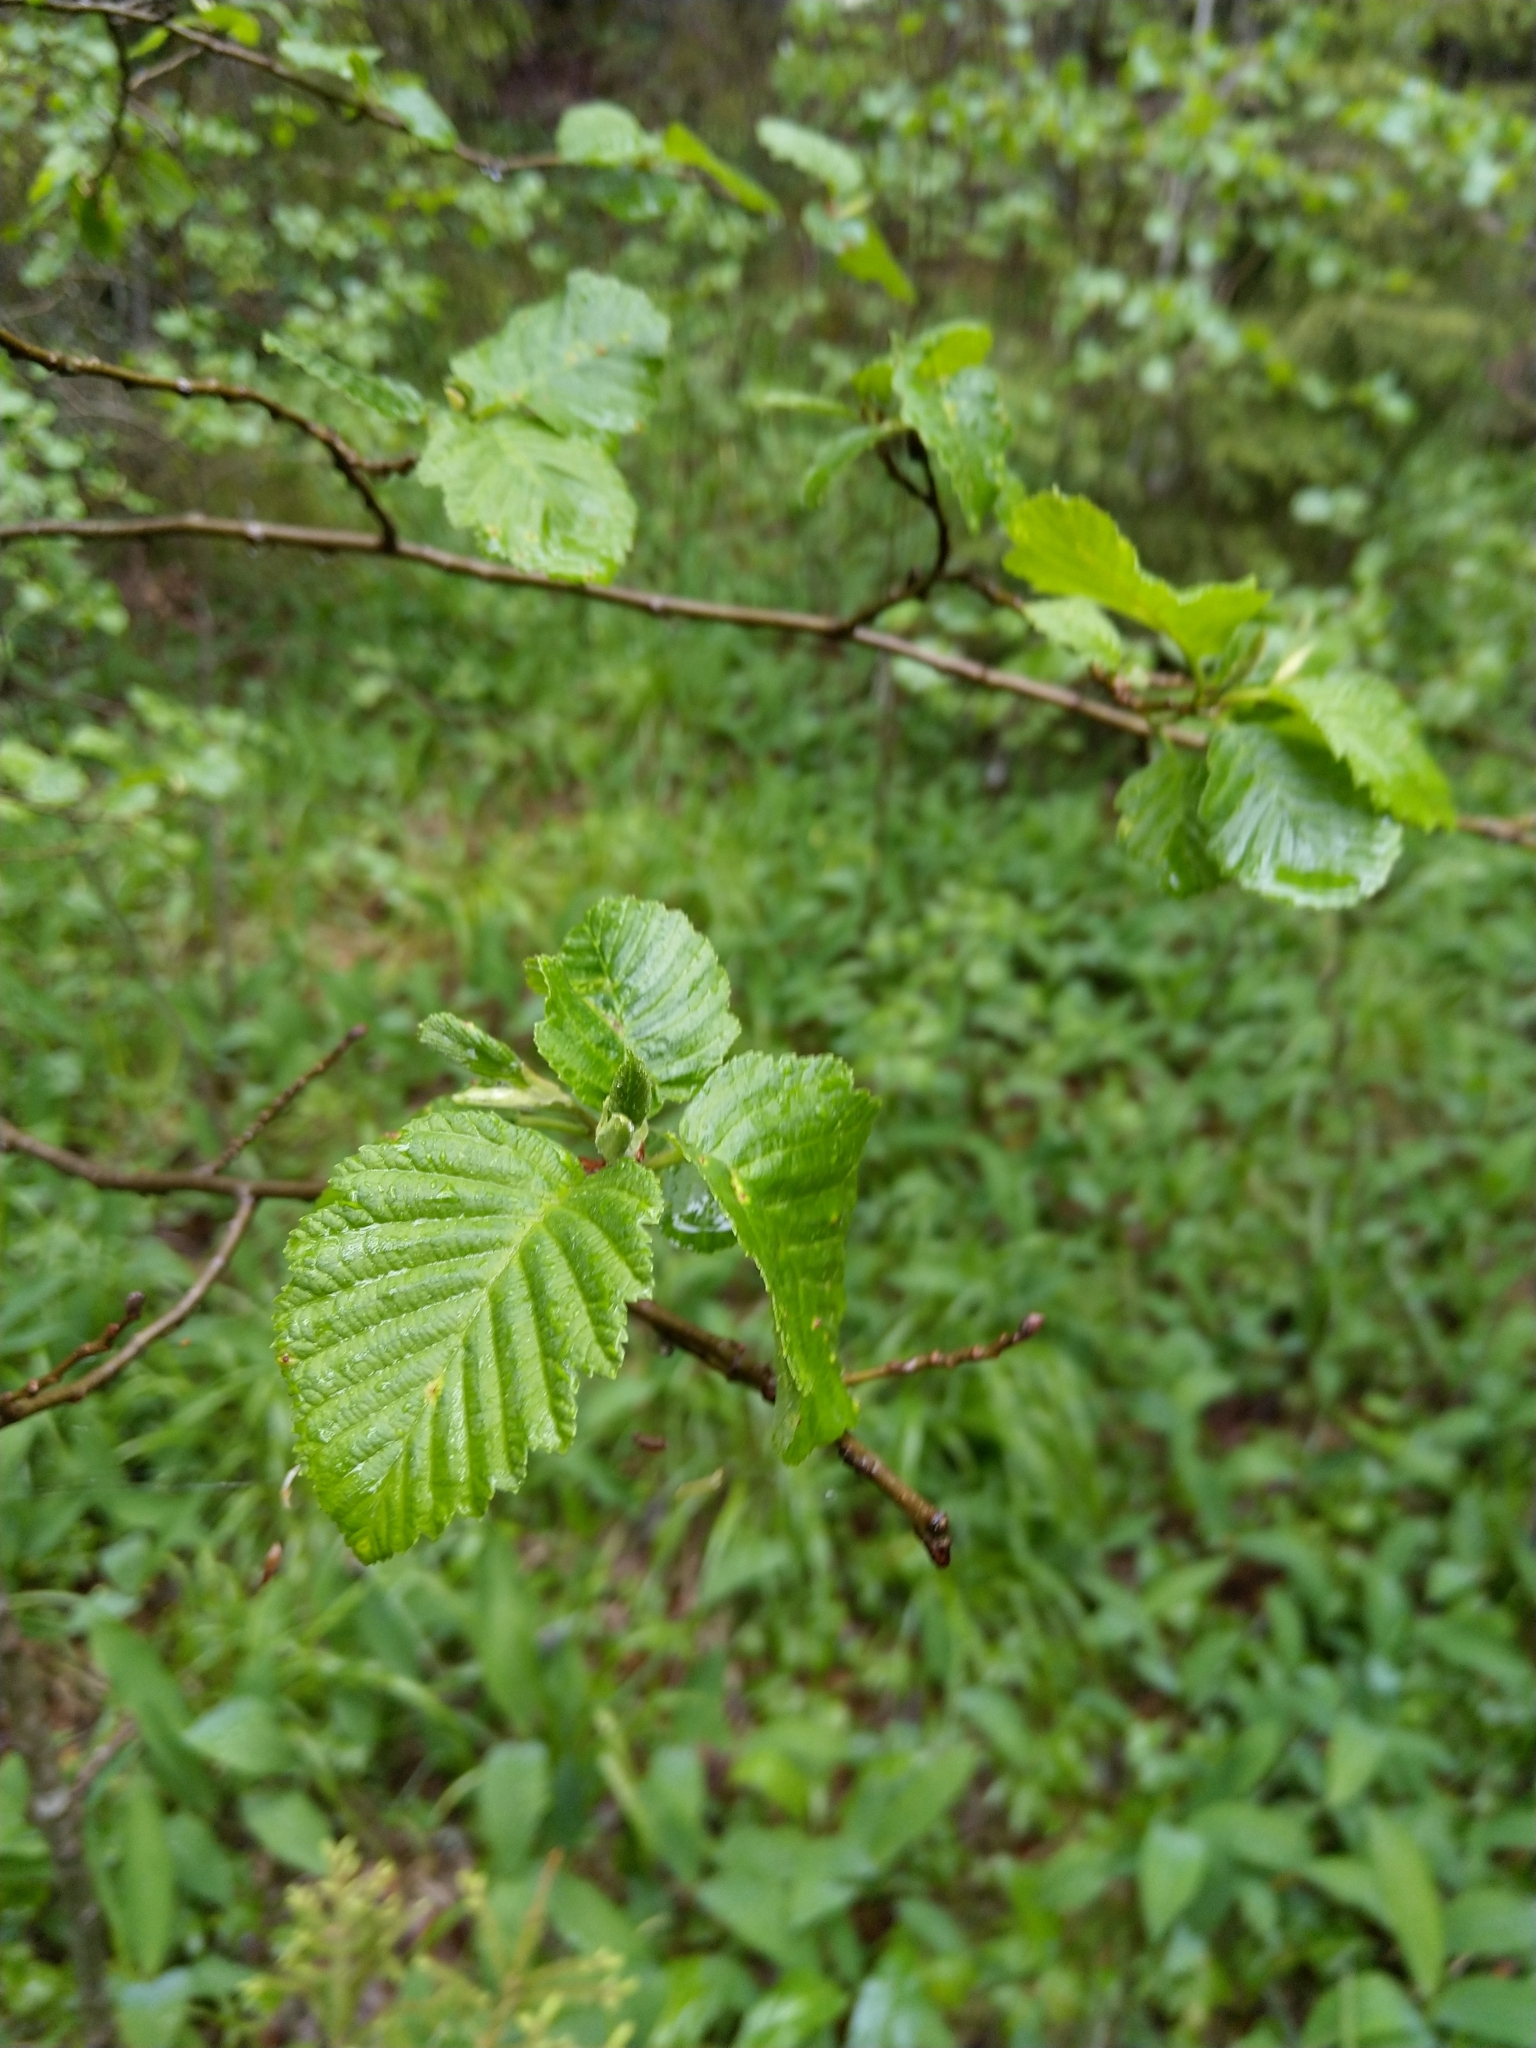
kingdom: Plantae
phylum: Tracheophyta
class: Magnoliopsida
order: Fagales
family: Betulaceae
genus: Alnus
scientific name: Alnus incana
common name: Grey alder
